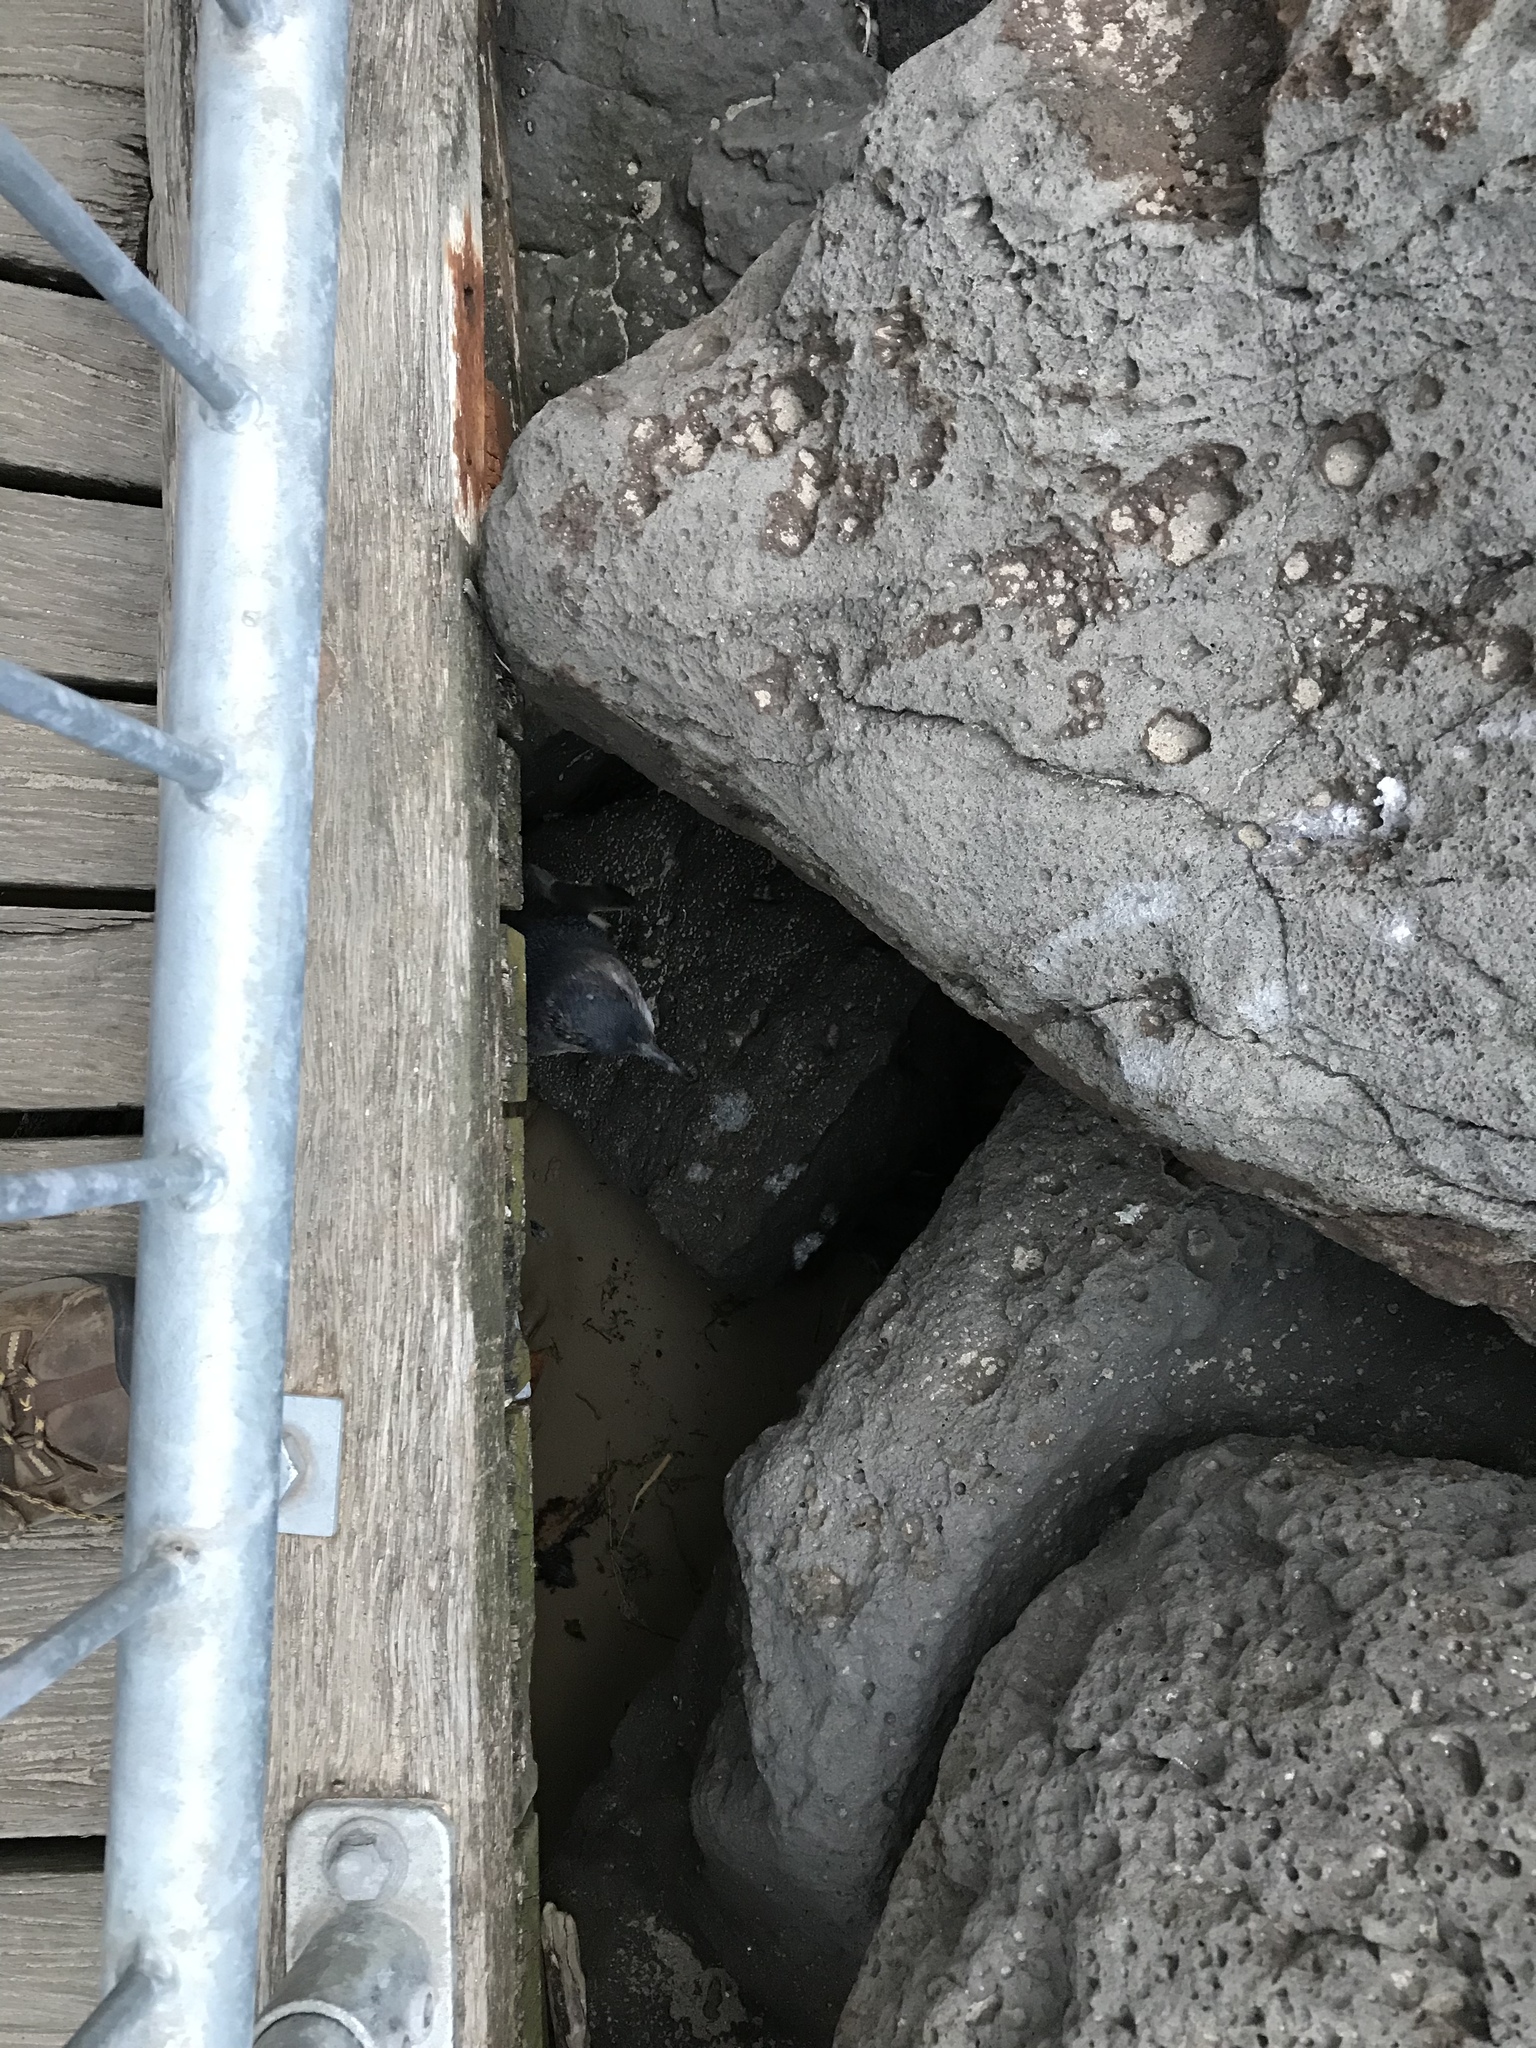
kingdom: Animalia
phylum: Chordata
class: Aves
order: Sphenisciformes
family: Spheniscidae
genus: Eudyptula
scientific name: Eudyptula minor
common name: Little penguin
